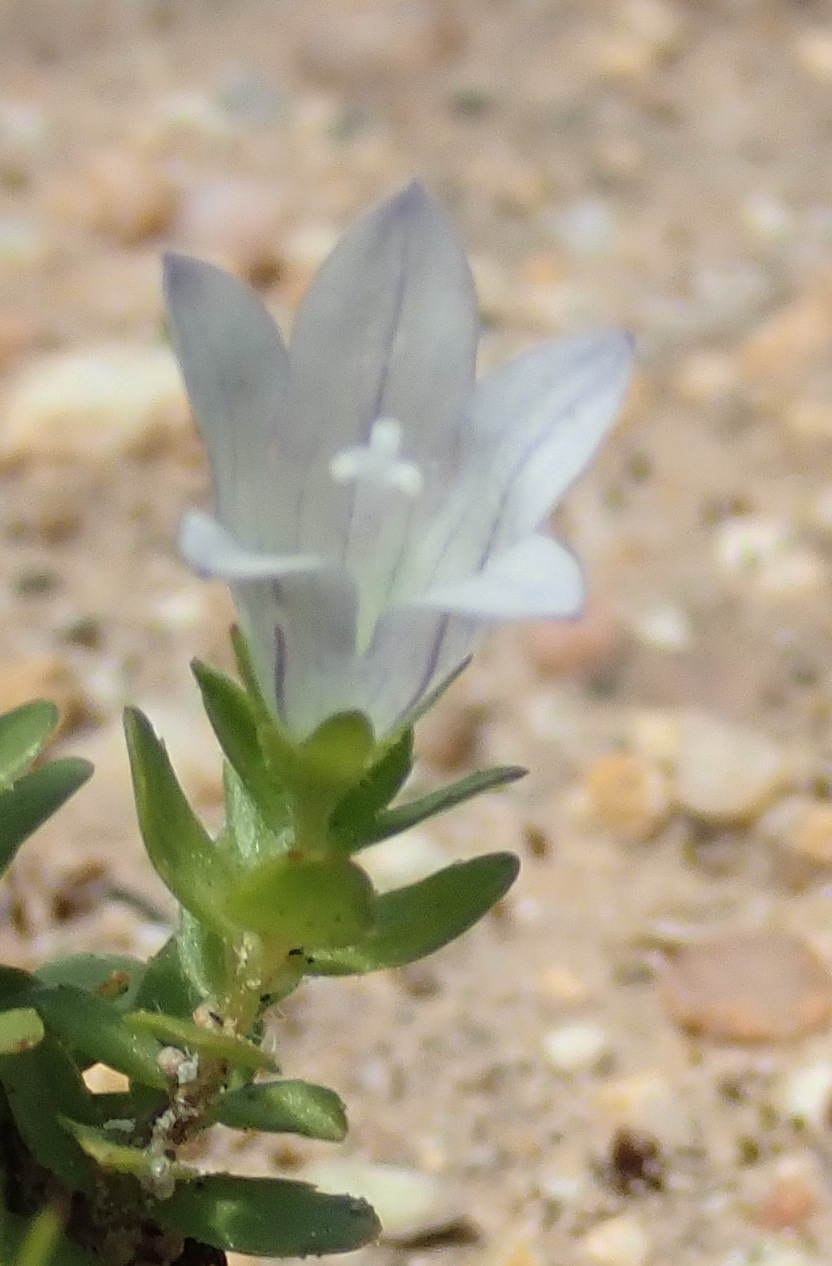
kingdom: Plantae
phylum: Tracheophyta
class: Magnoliopsida
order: Asterales
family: Campanulaceae
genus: Wahlenbergia
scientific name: Wahlenbergia procumbens
